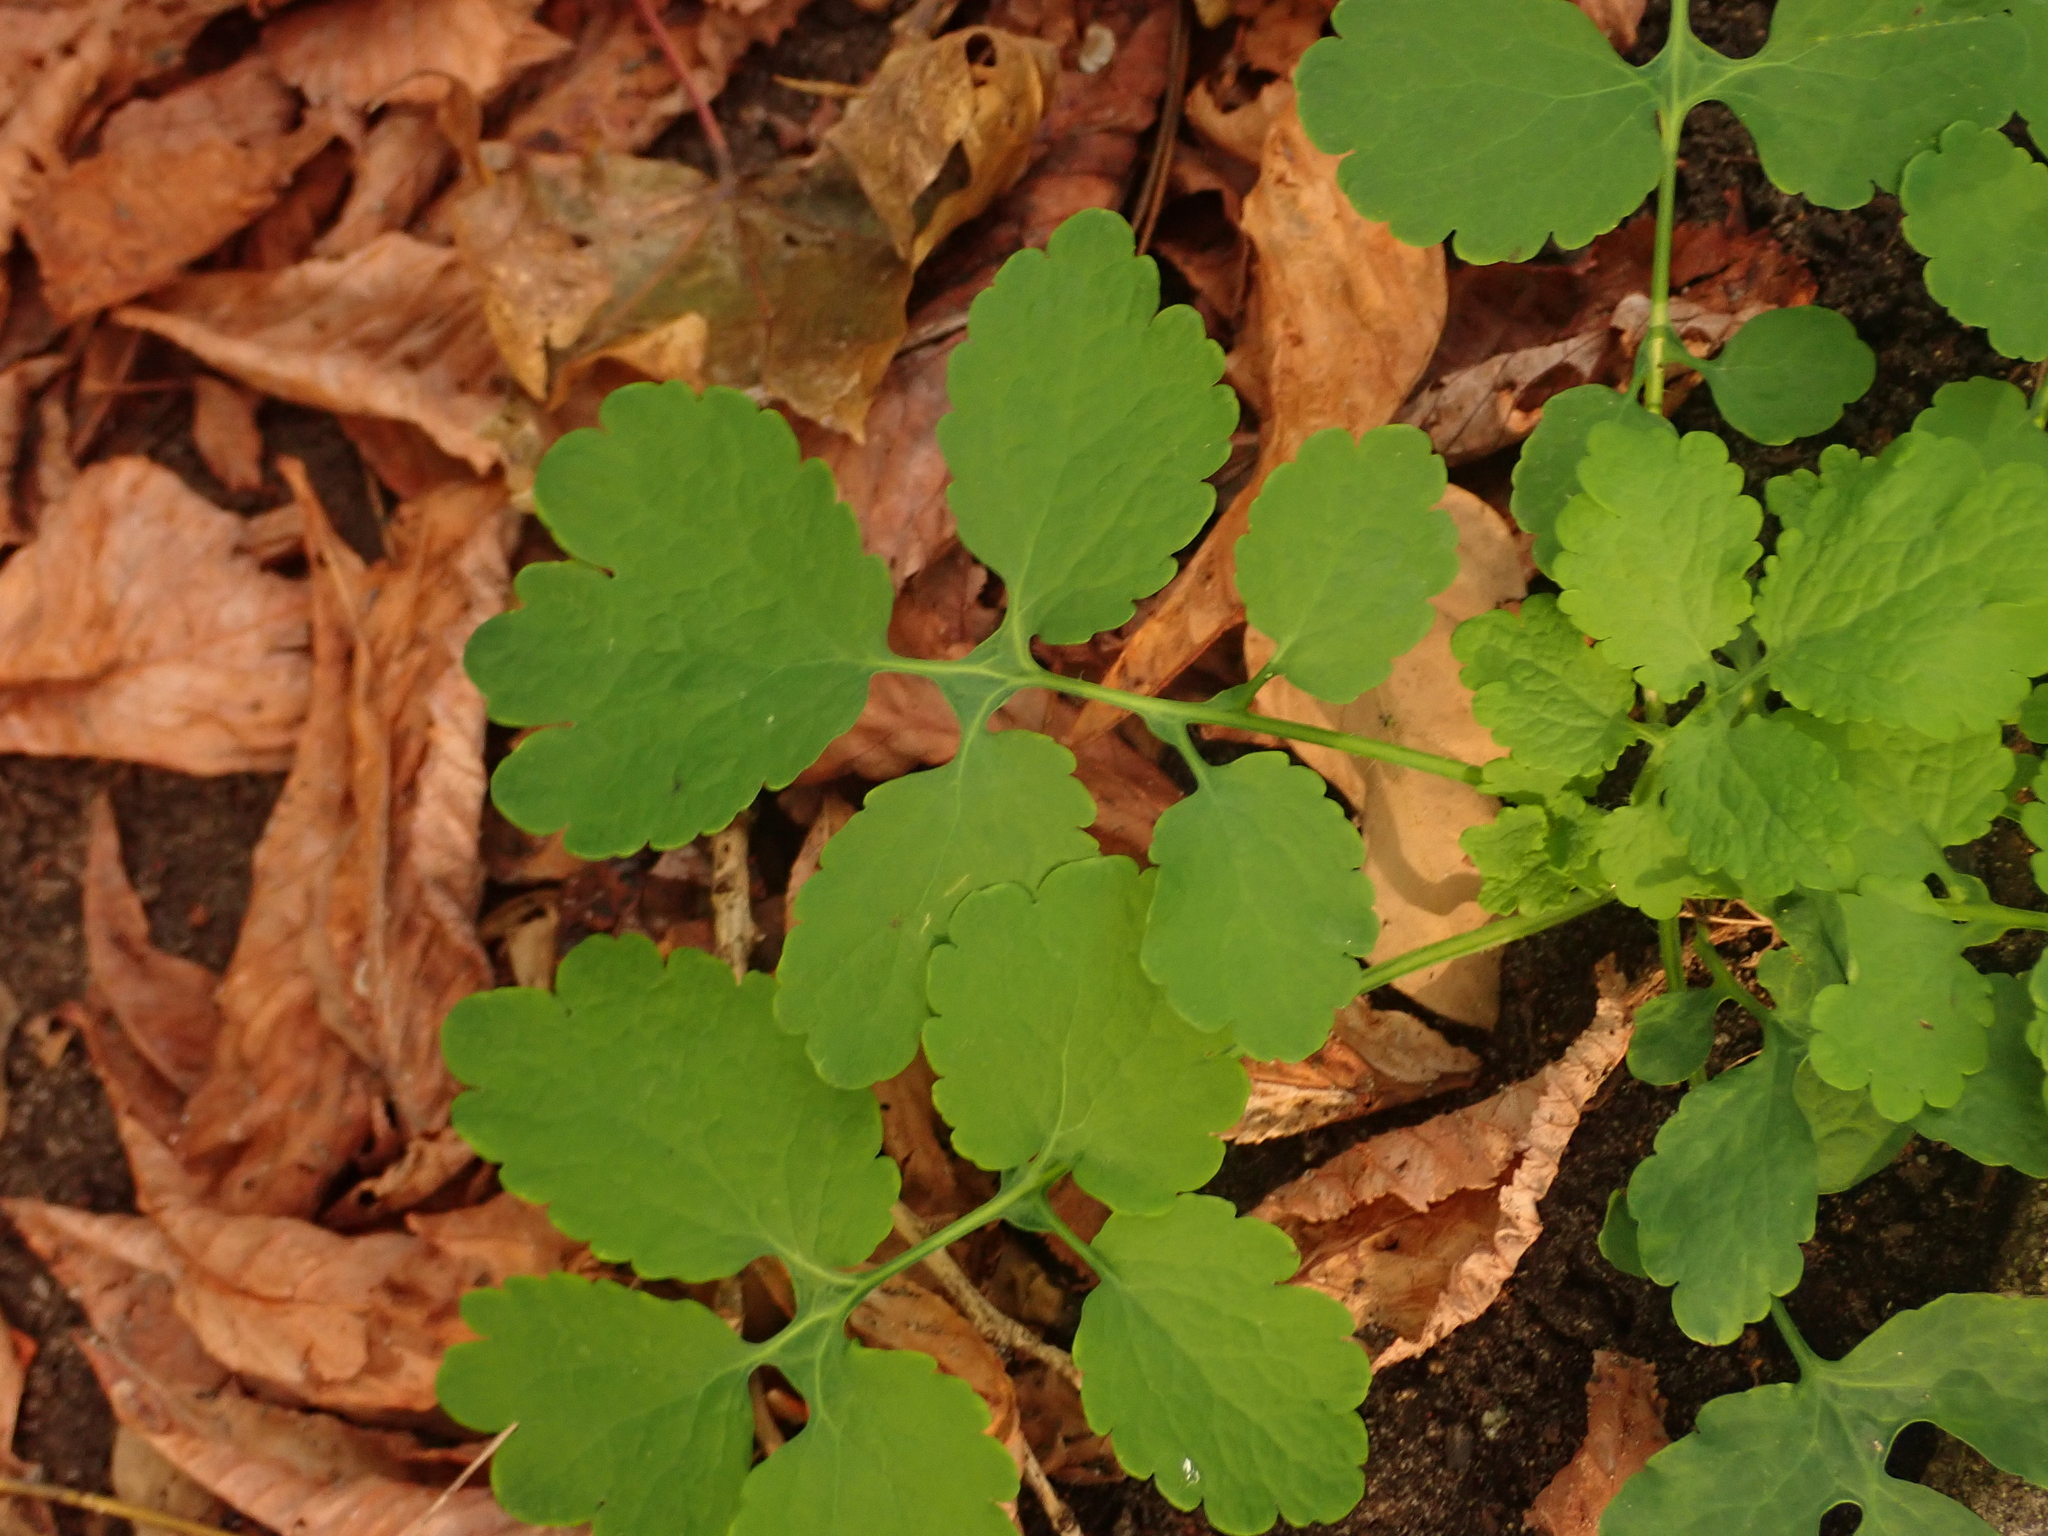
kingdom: Plantae
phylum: Tracheophyta
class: Magnoliopsida
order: Ranunculales
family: Papaveraceae
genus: Chelidonium
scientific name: Chelidonium majus
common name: Greater celandine
